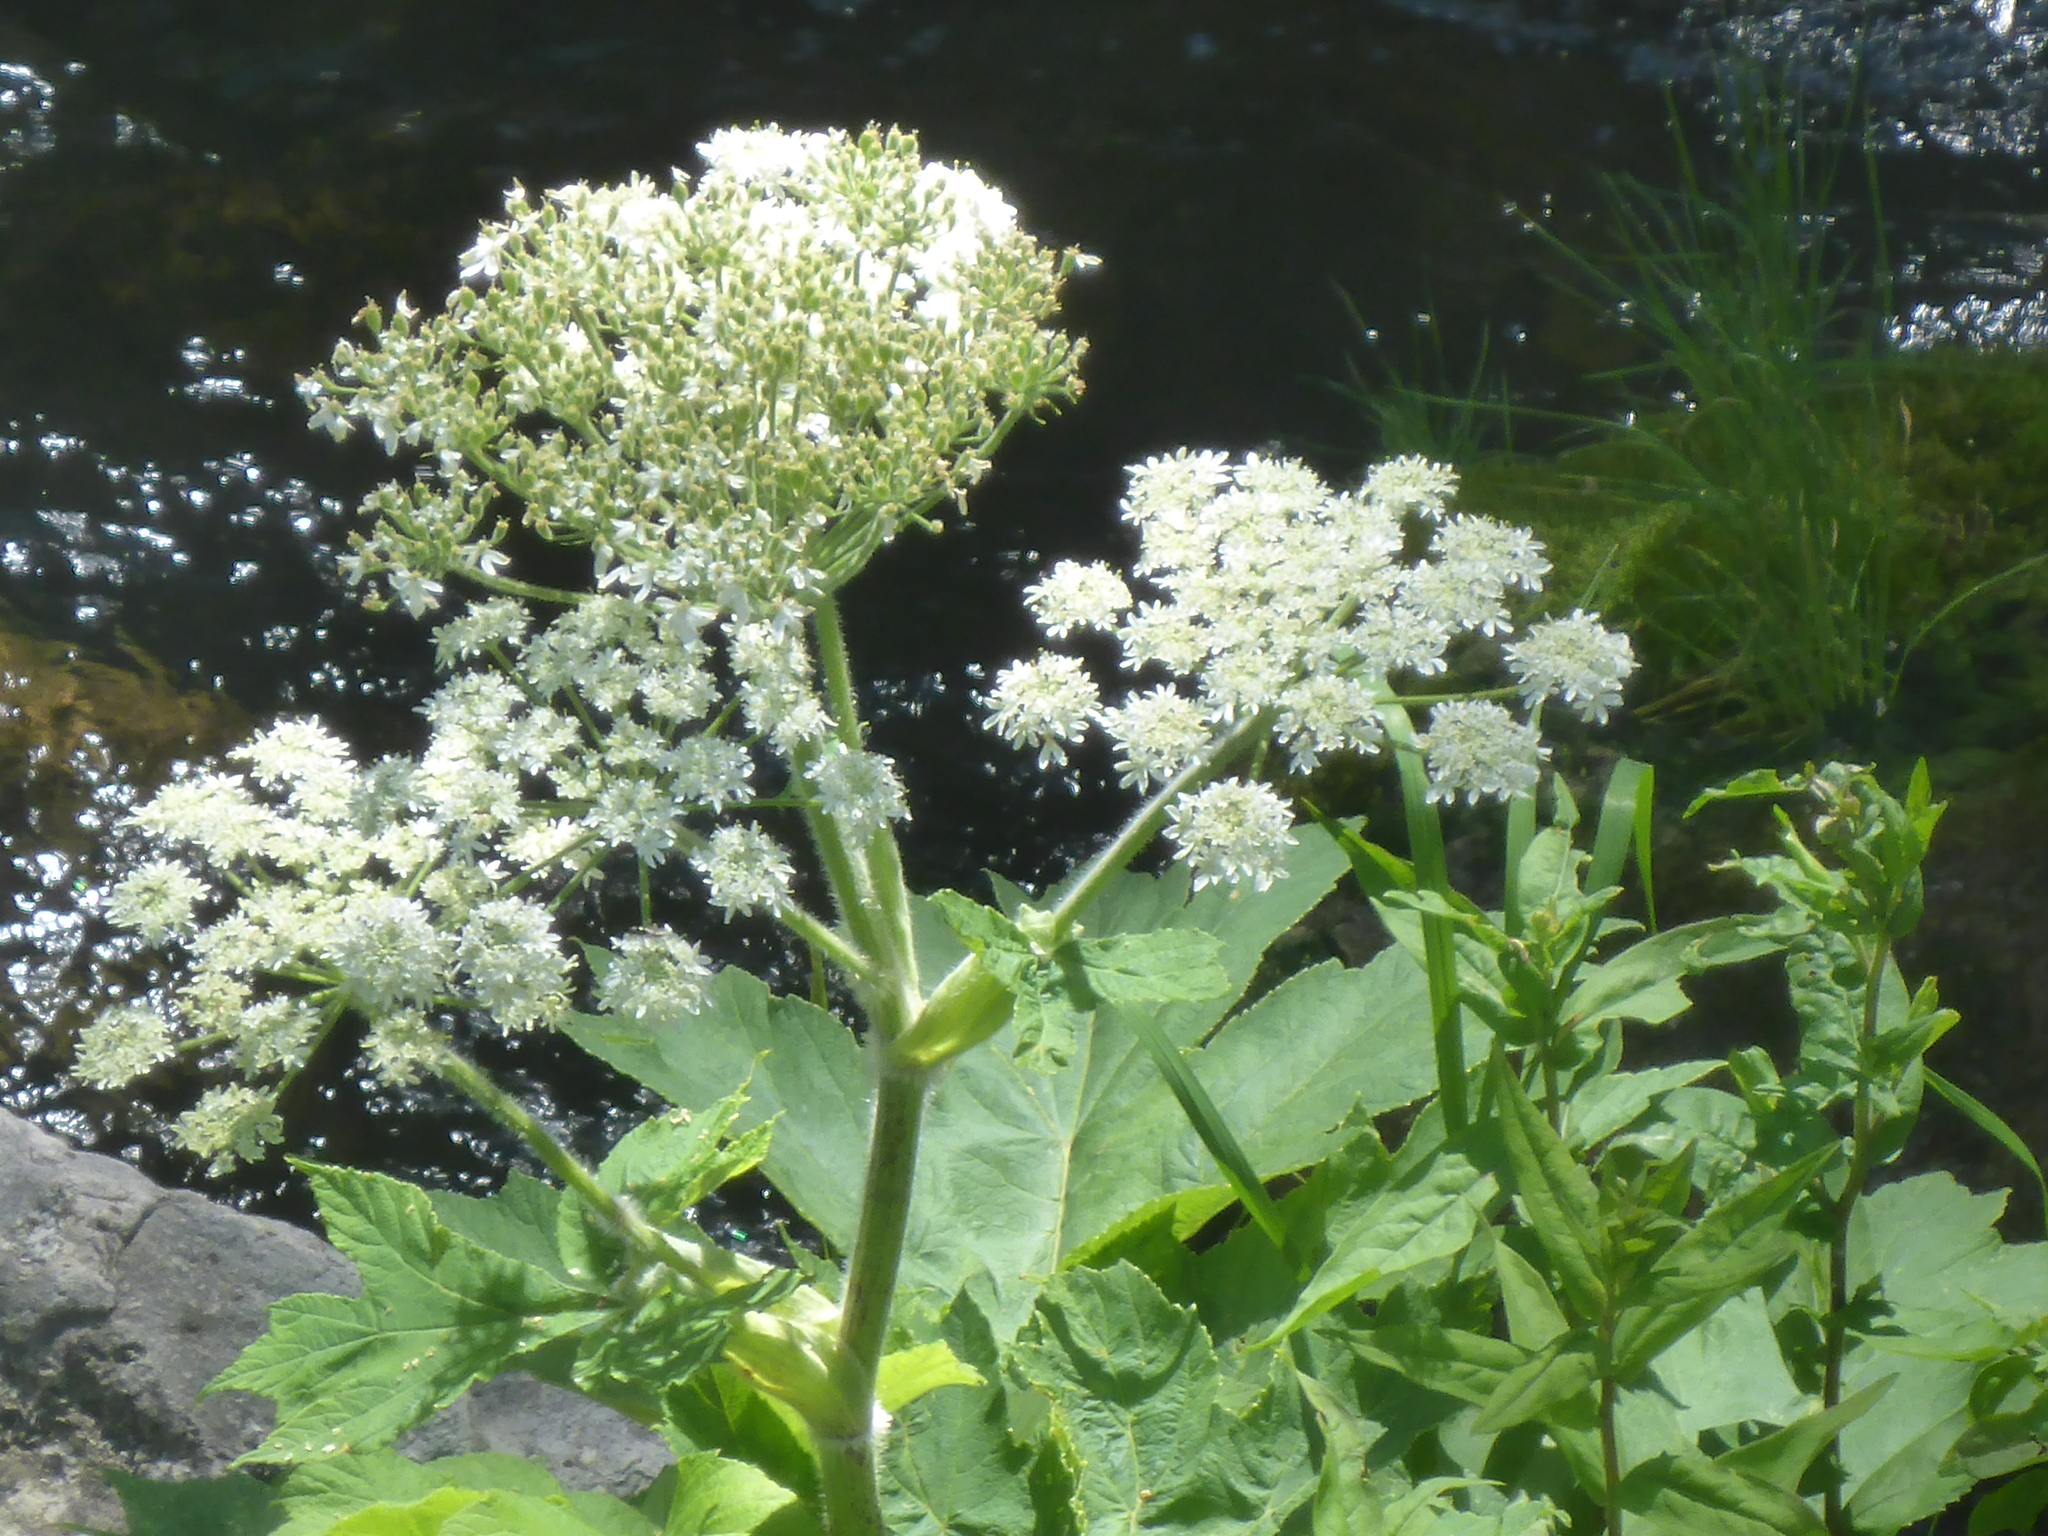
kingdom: Plantae
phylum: Tracheophyta
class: Magnoliopsida
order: Apiales
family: Apiaceae
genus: Heracleum
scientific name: Heracleum maximum
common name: American cow parsnip
